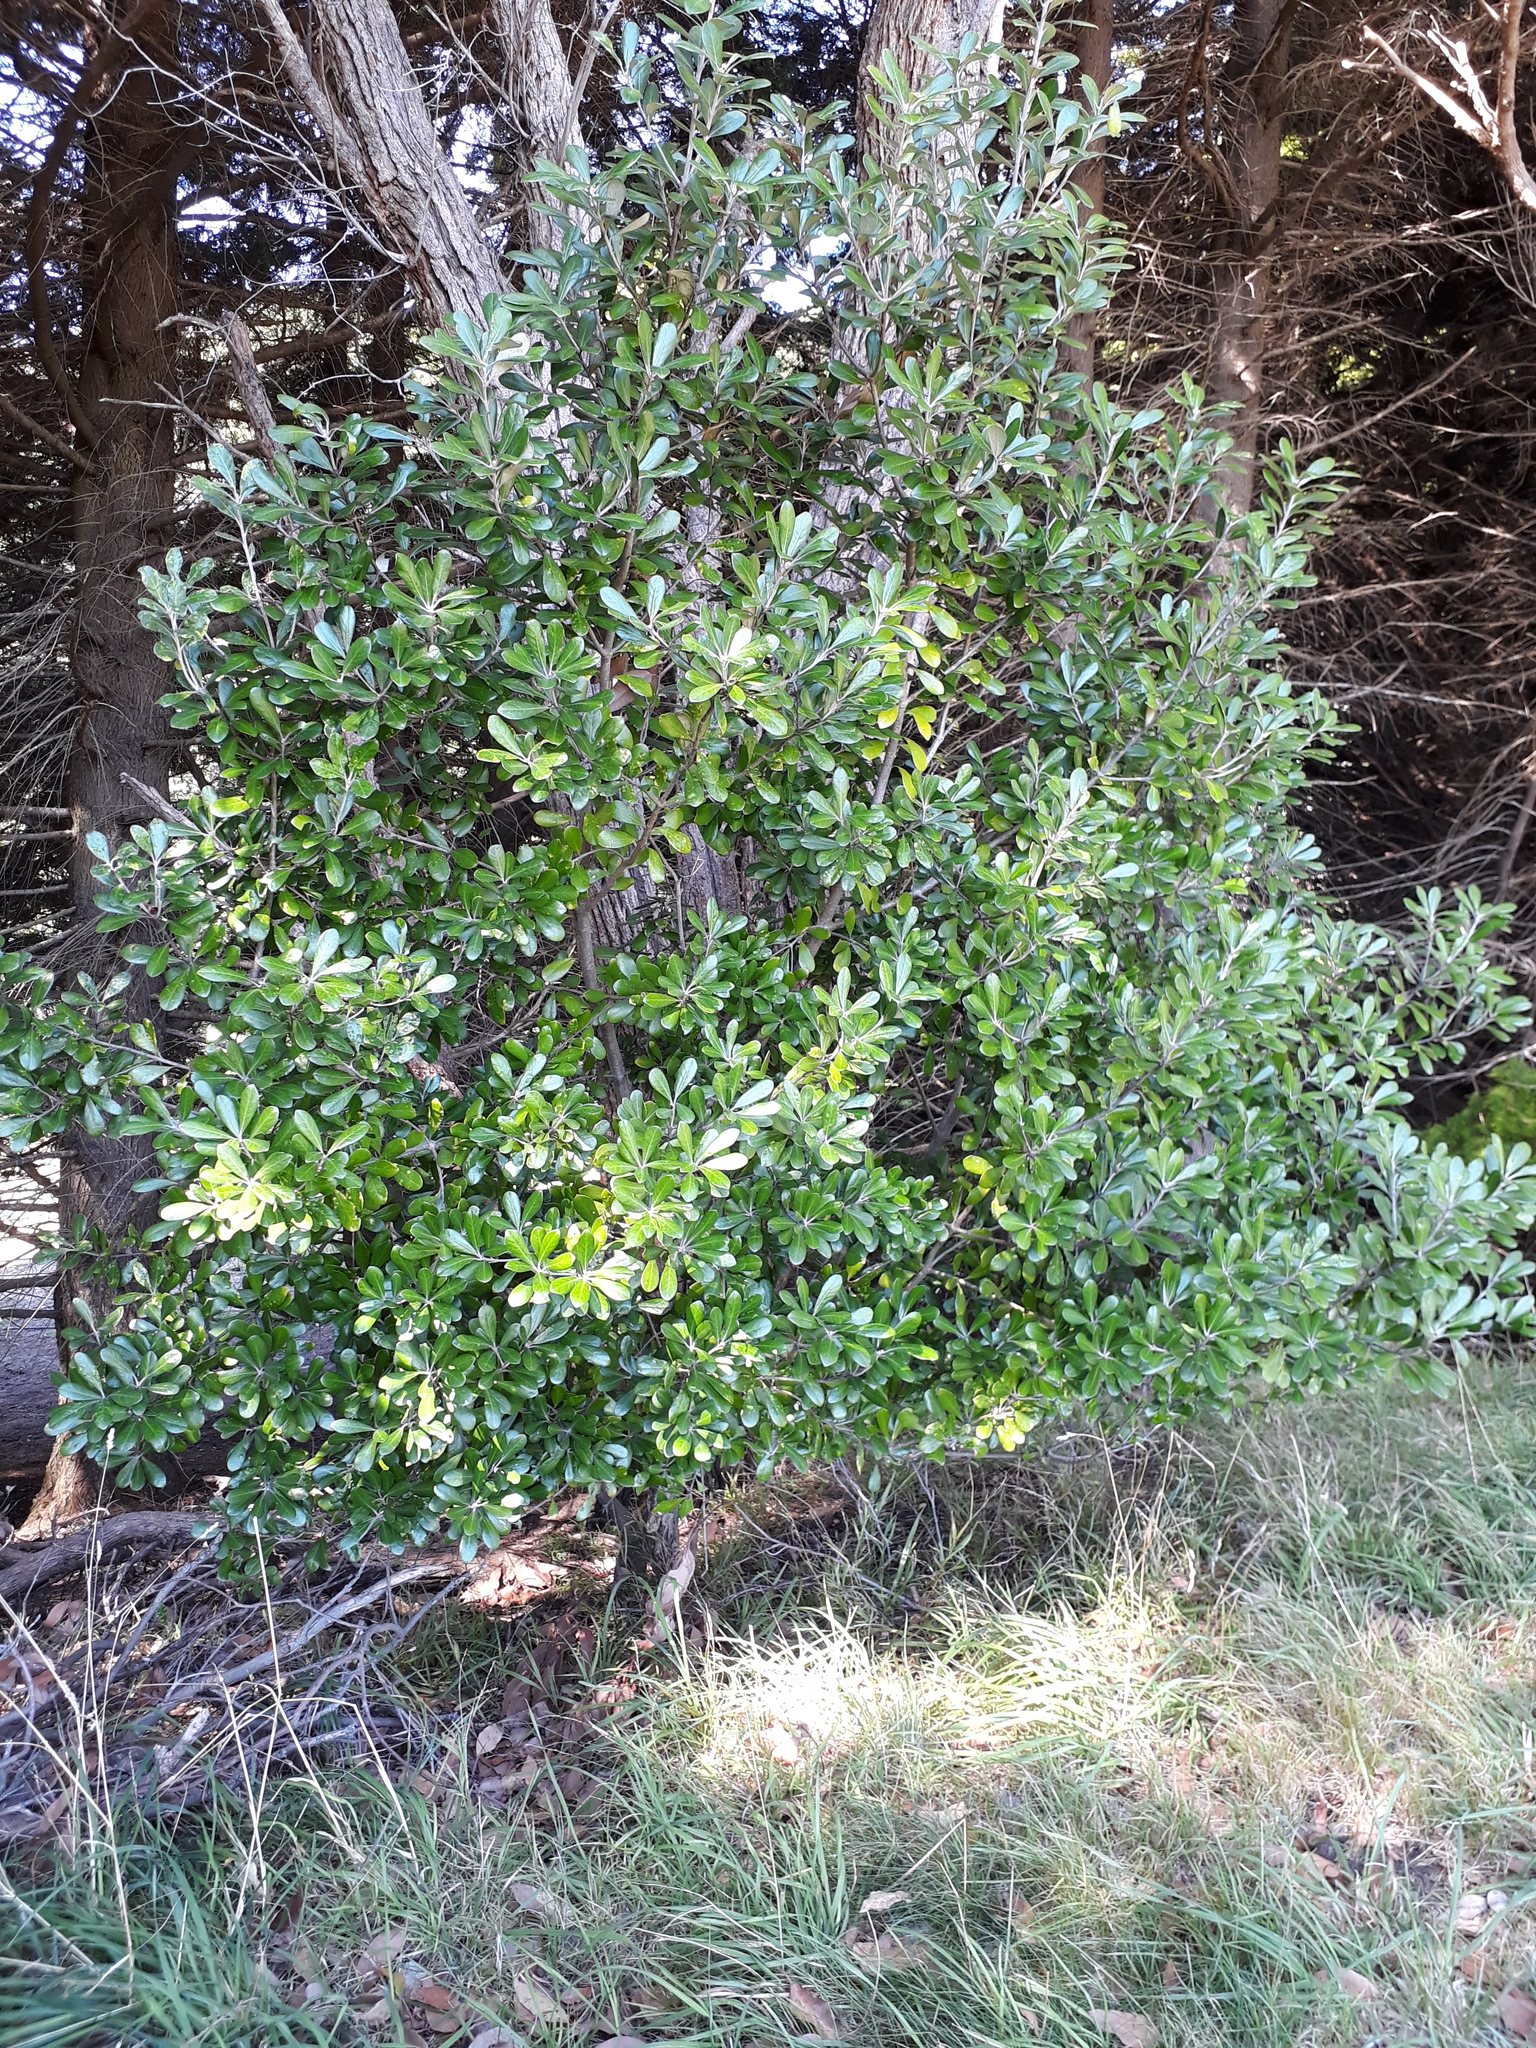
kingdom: Plantae
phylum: Tracheophyta
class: Magnoliopsida
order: Apiales
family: Pittosporaceae
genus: Pittosporum
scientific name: Pittosporum crassifolium
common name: Karo
